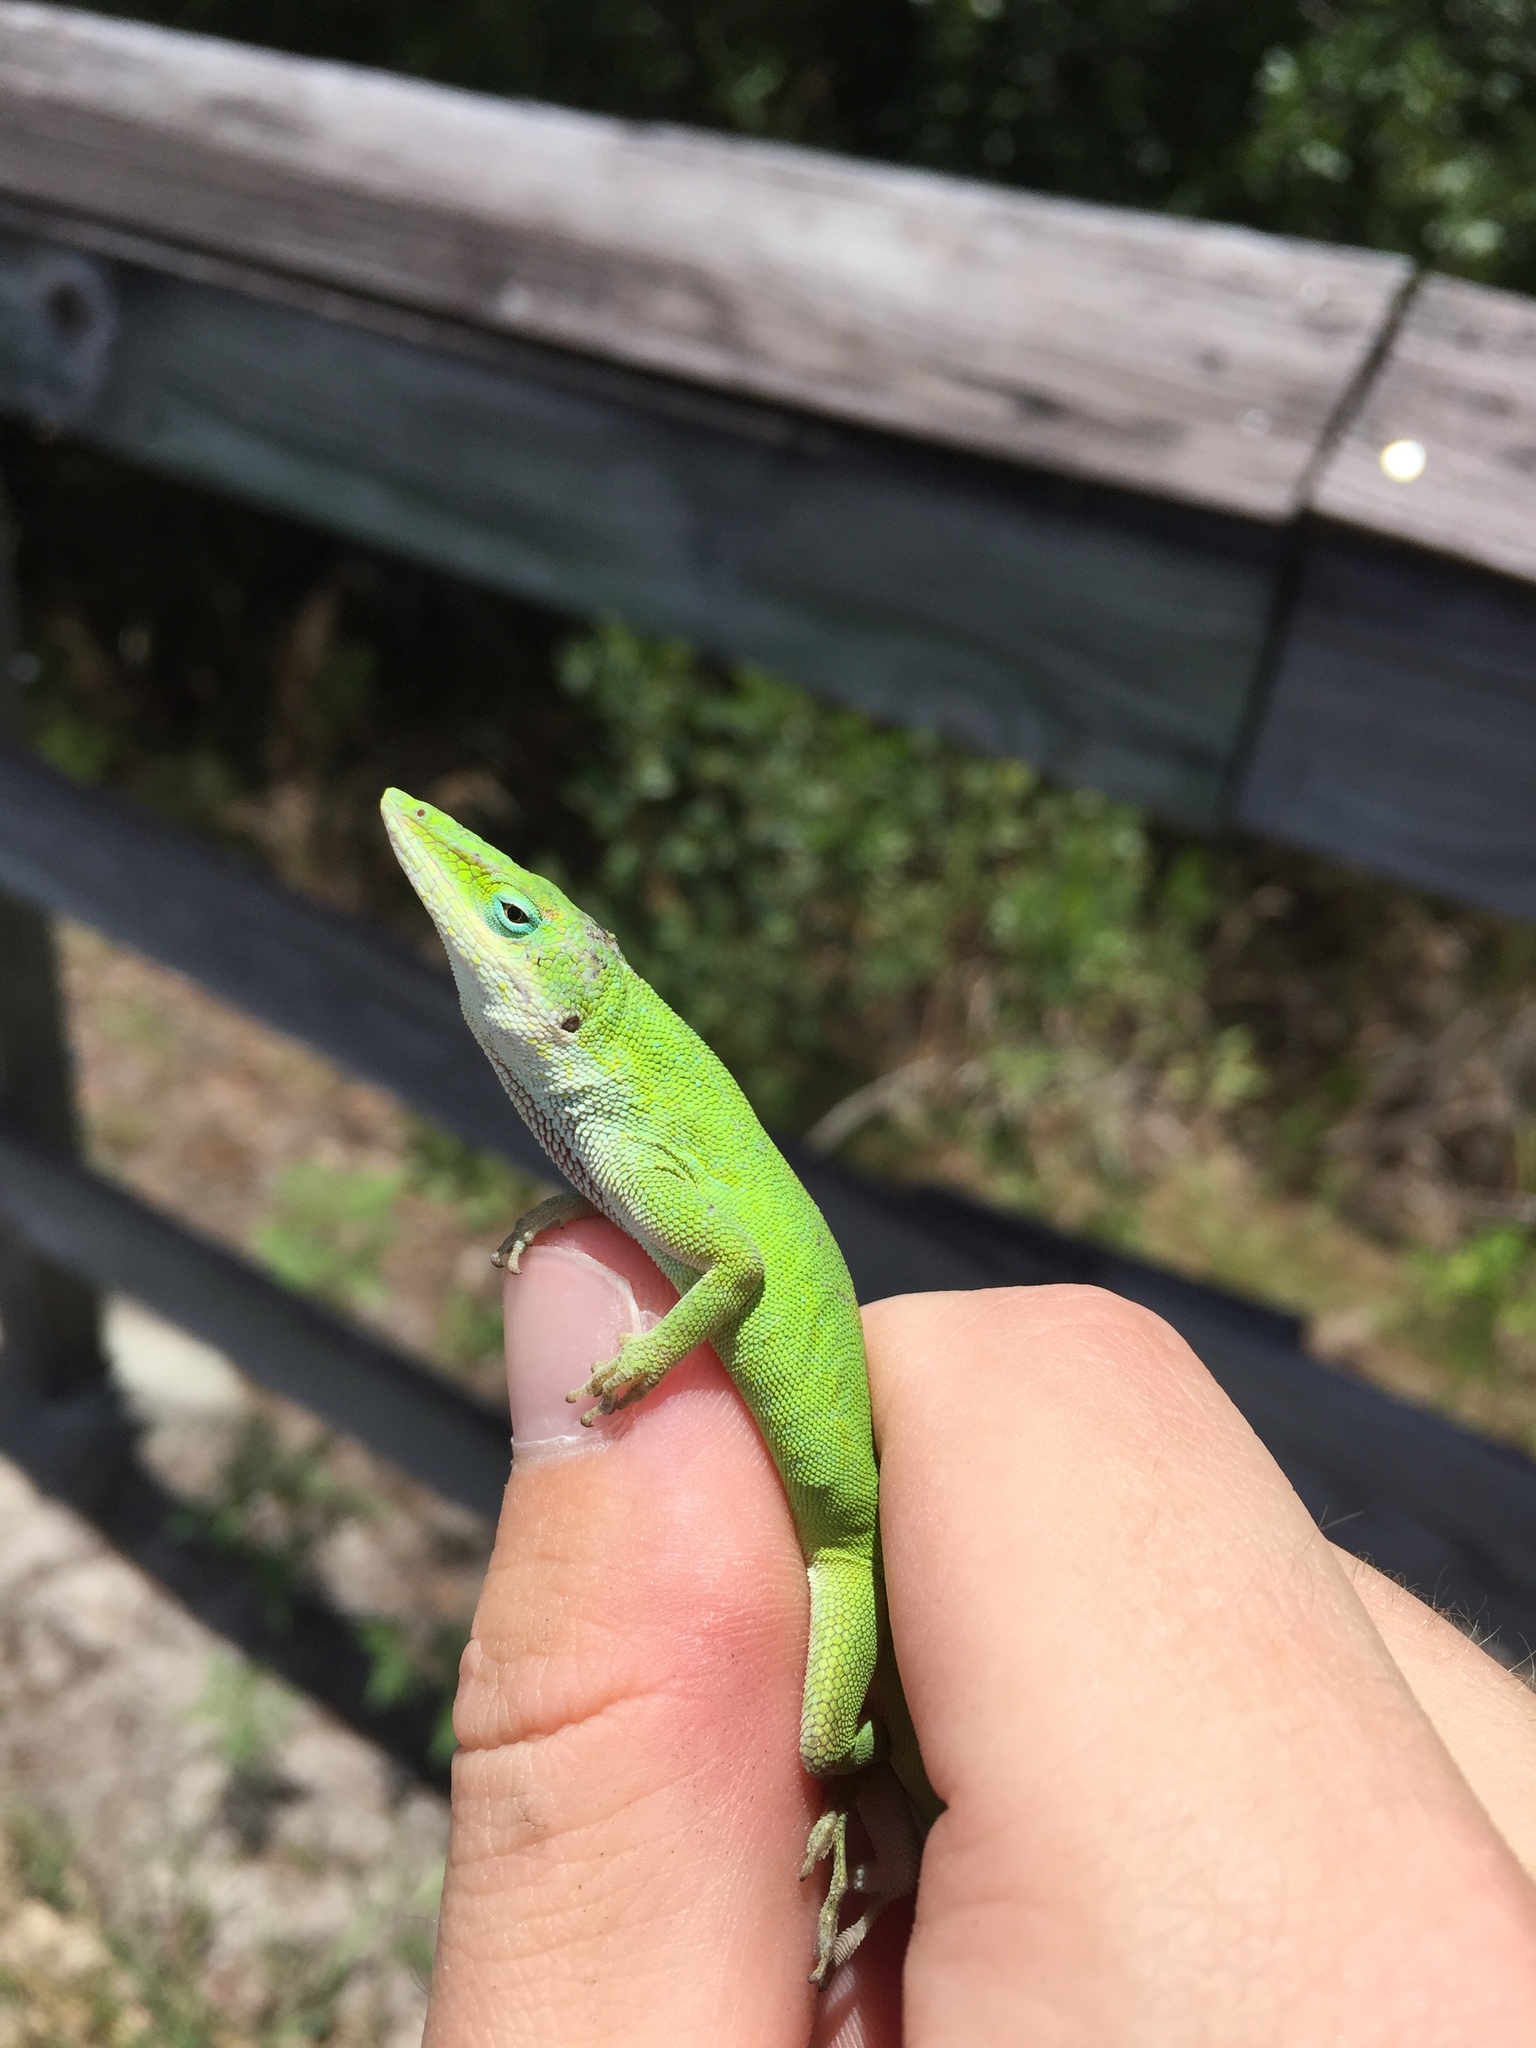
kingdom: Animalia
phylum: Chordata
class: Squamata
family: Dactyloidae
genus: Anolis
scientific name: Anolis carolinensis
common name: Green anole
